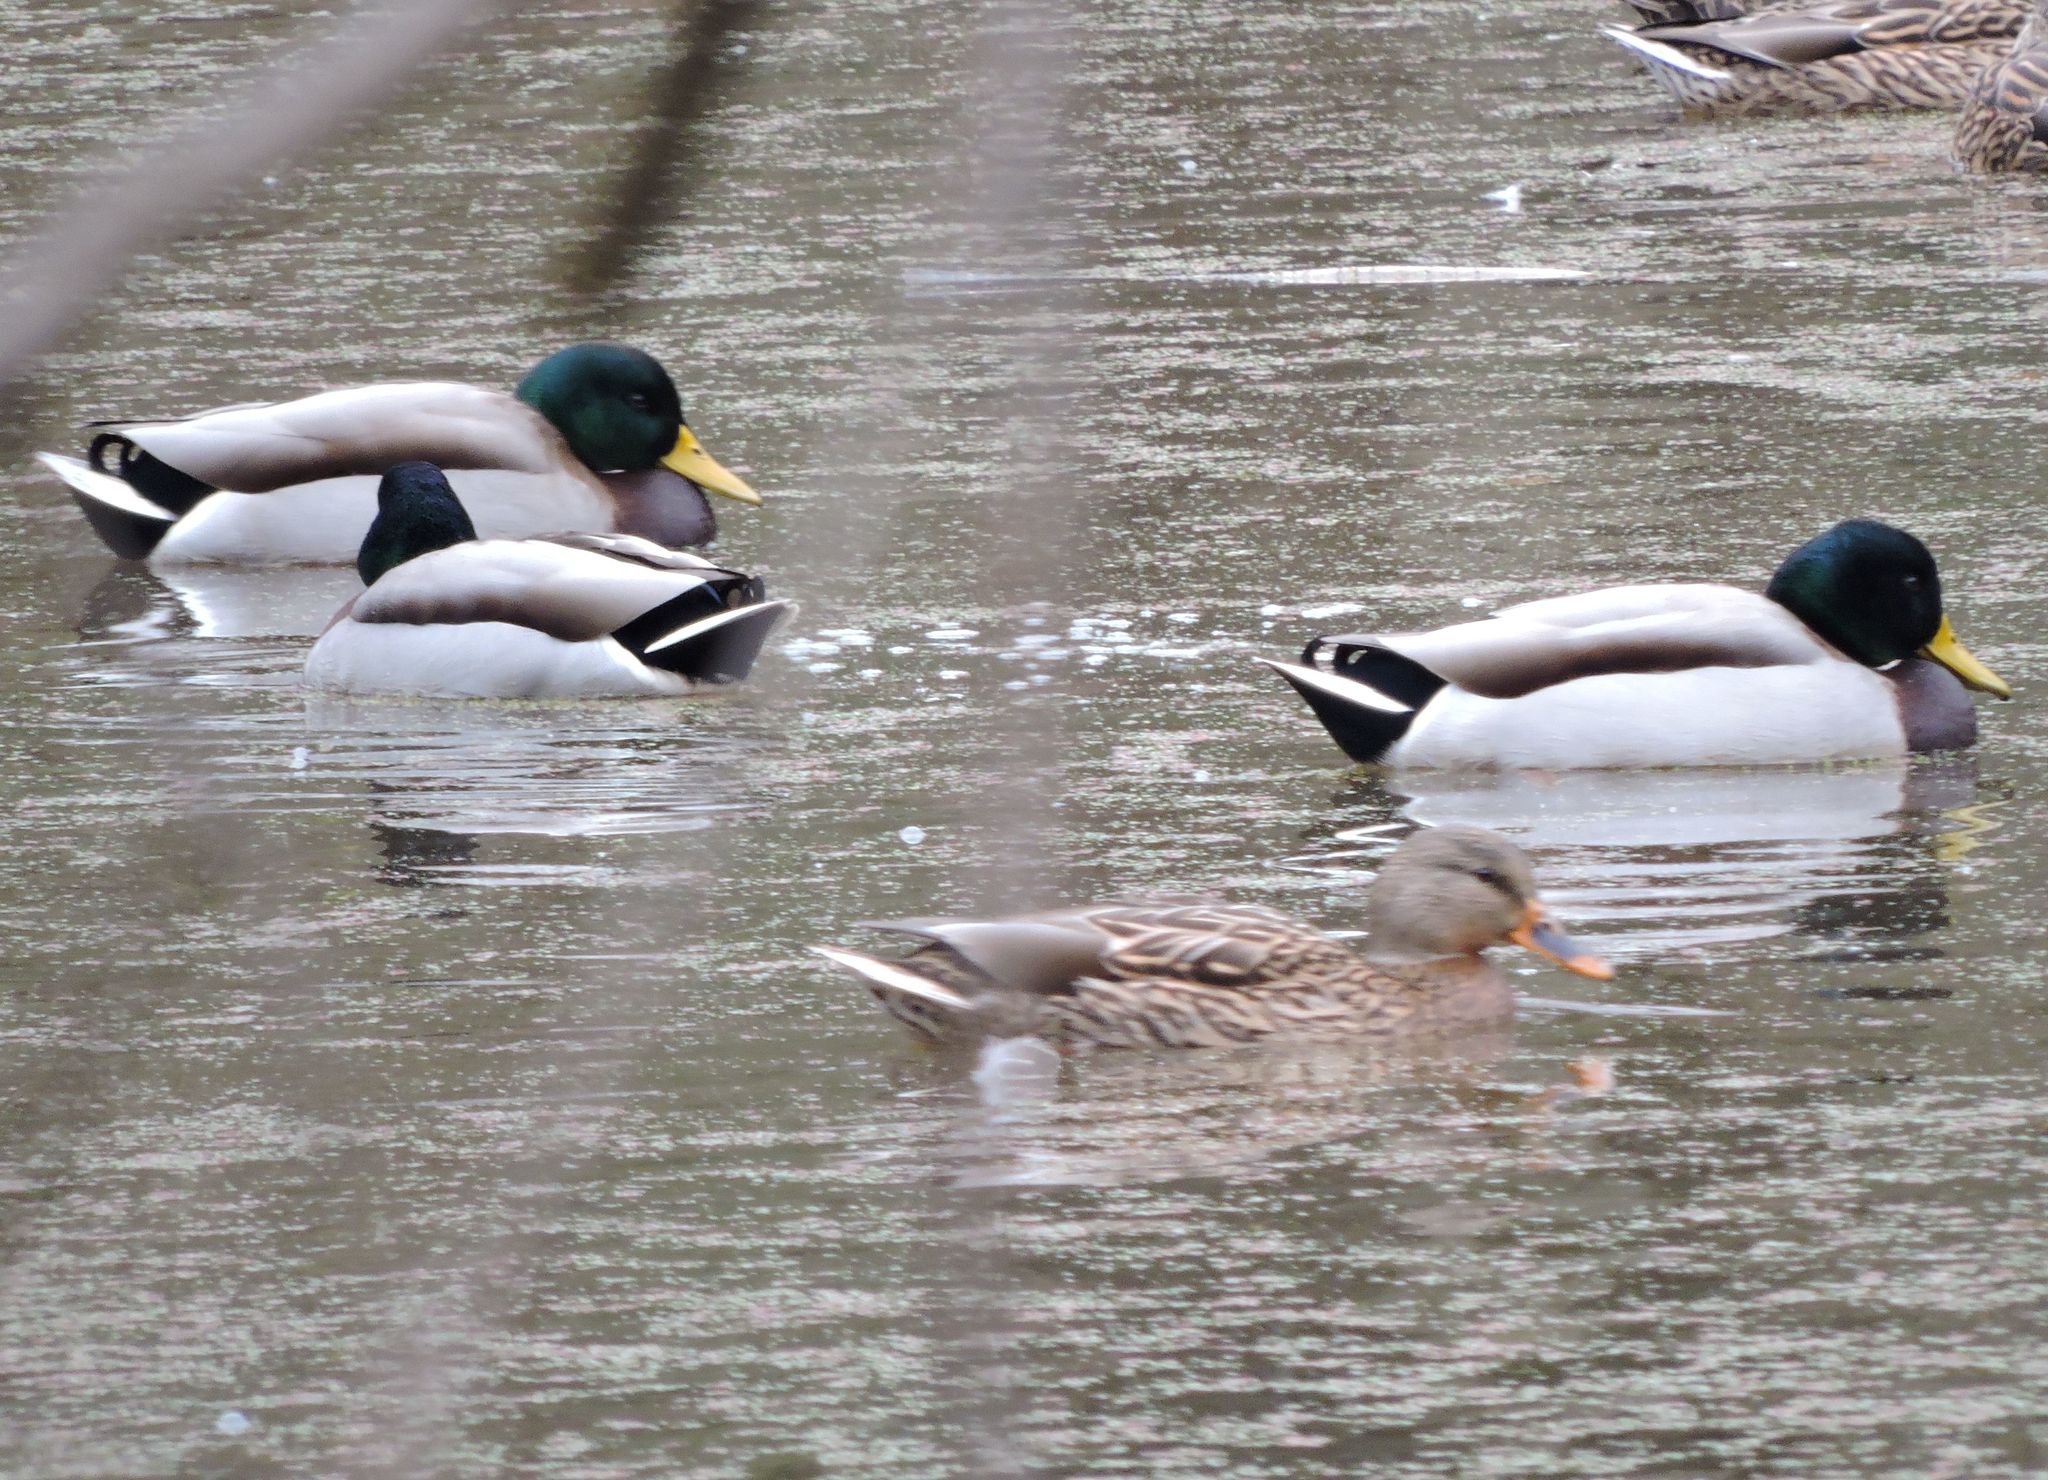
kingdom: Animalia
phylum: Chordata
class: Aves
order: Anseriformes
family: Anatidae
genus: Anas
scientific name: Anas platyrhynchos
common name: Mallard
